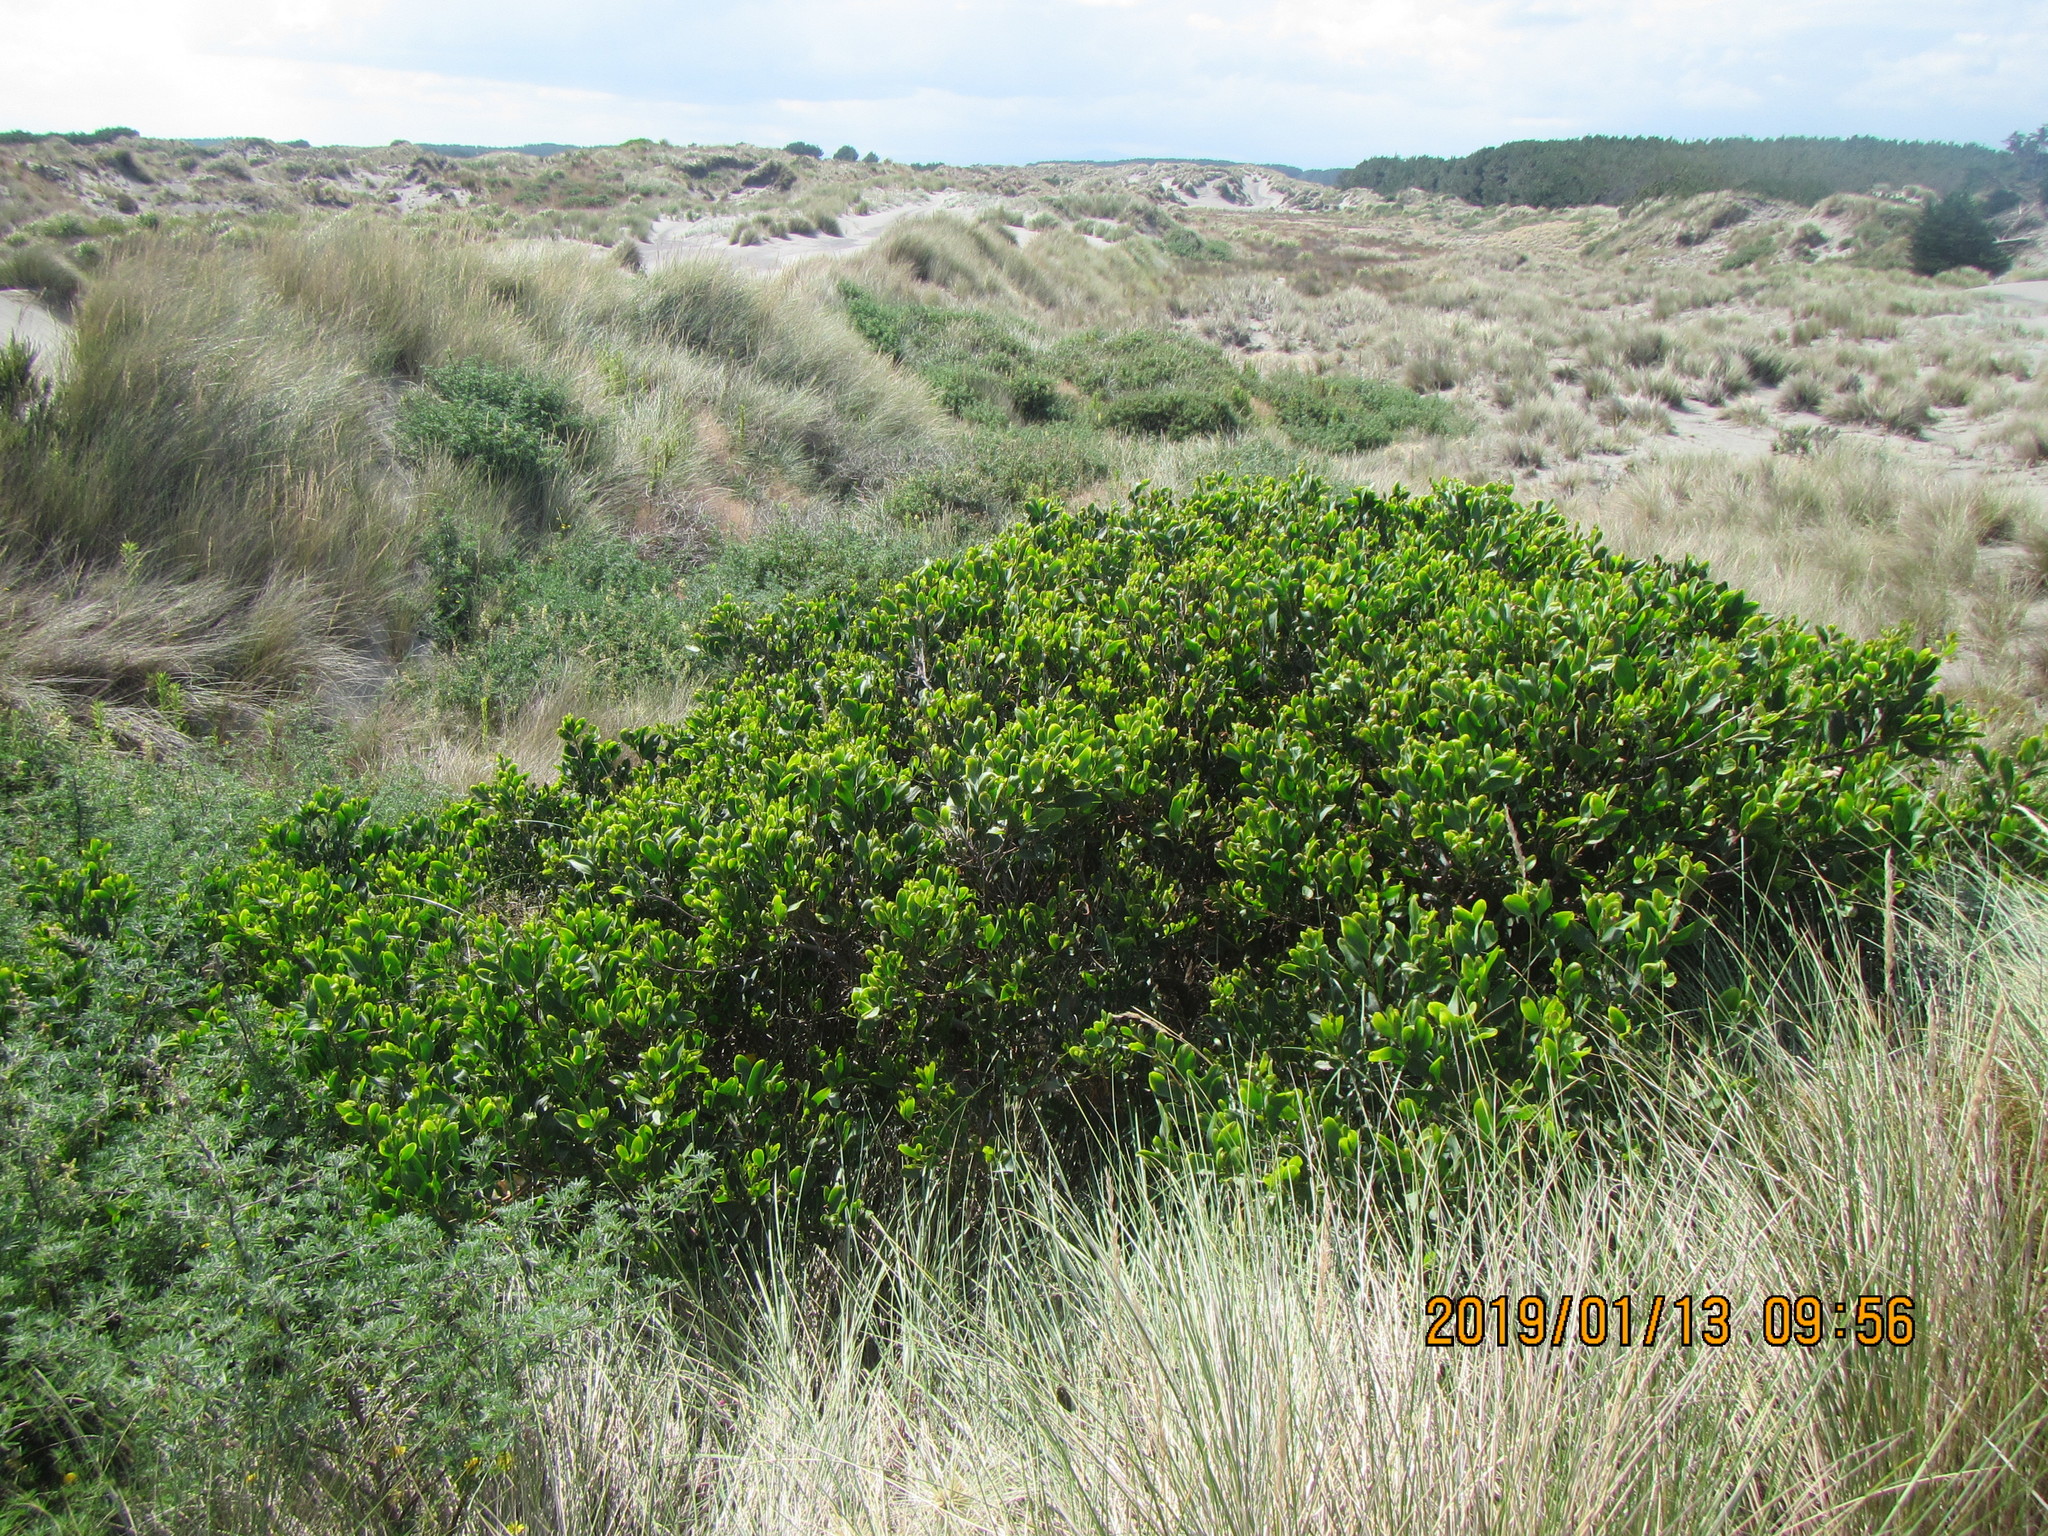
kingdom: Plantae
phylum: Tracheophyta
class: Magnoliopsida
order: Fabales
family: Fabaceae
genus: Acacia
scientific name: Acacia longifolia
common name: Sydney golden wattle
